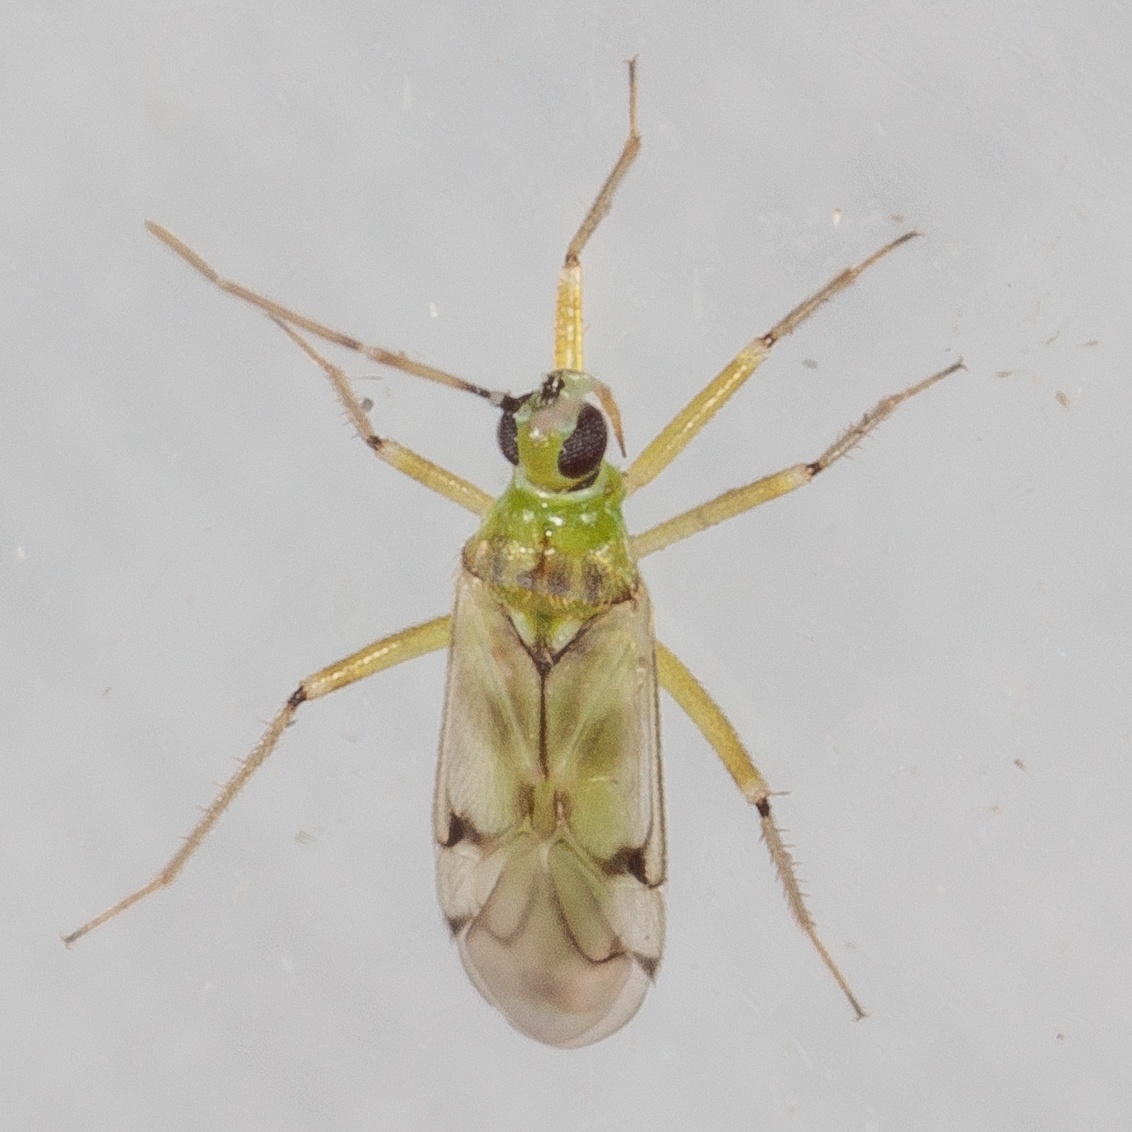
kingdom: Animalia
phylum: Arthropoda
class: Insecta
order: Hemiptera
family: Miridae
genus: Engytatus
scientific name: Engytatus modestus
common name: Tomato bug
